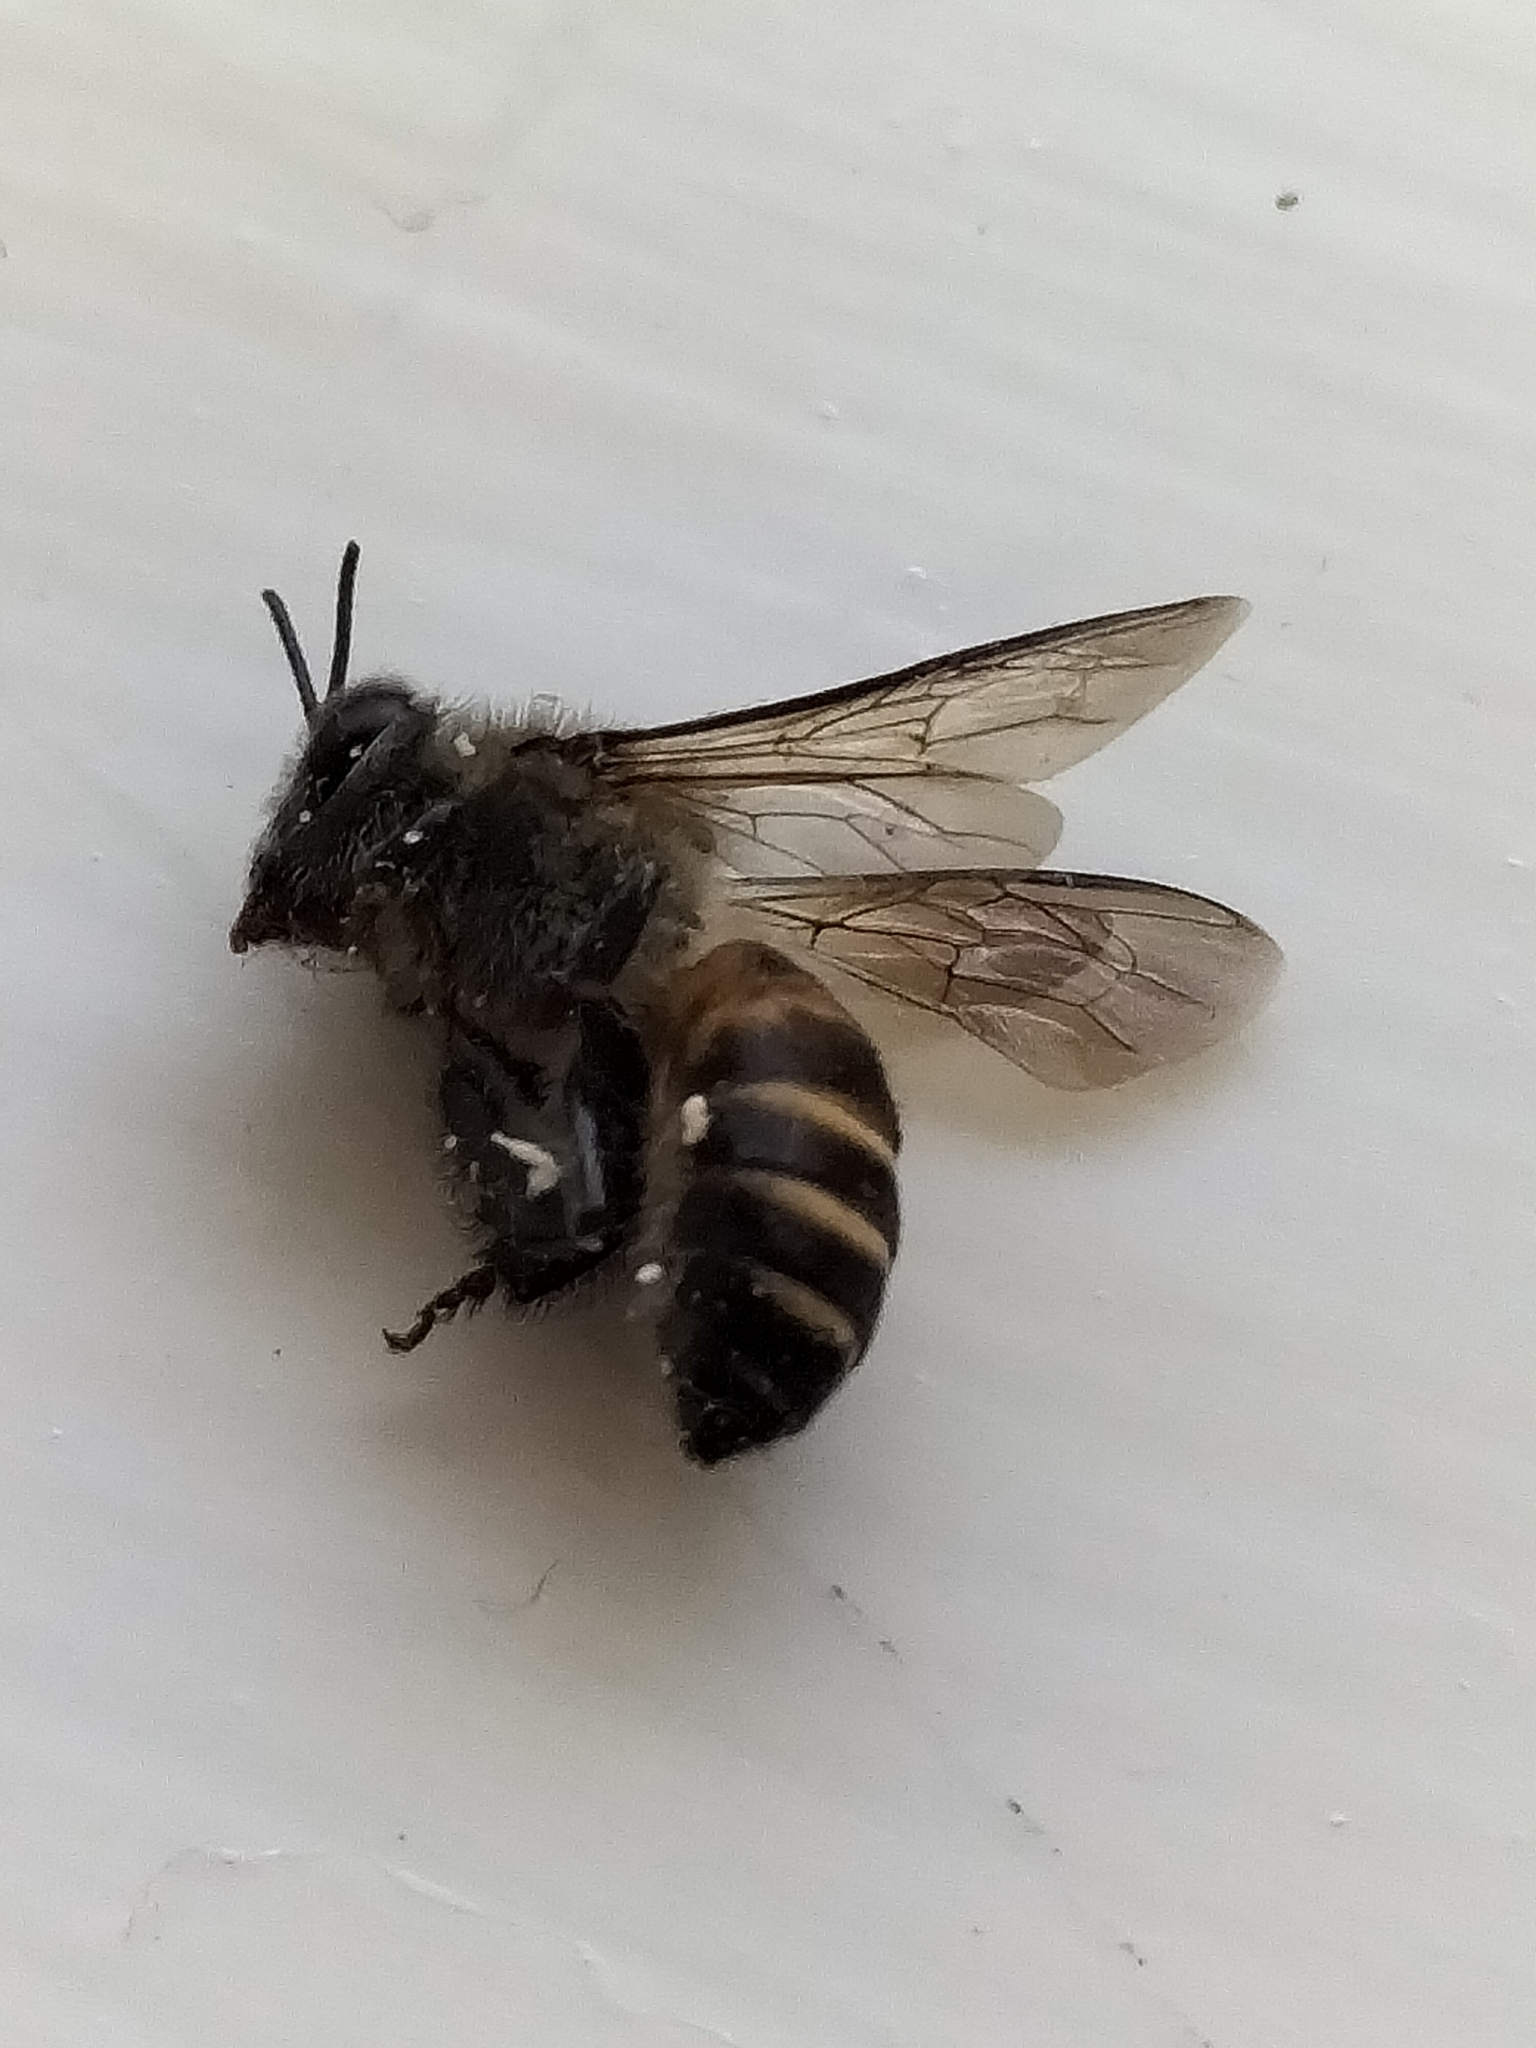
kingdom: Animalia
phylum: Arthropoda
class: Insecta
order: Hymenoptera
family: Apidae
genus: Apis
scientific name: Apis cerana
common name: Honey bee
